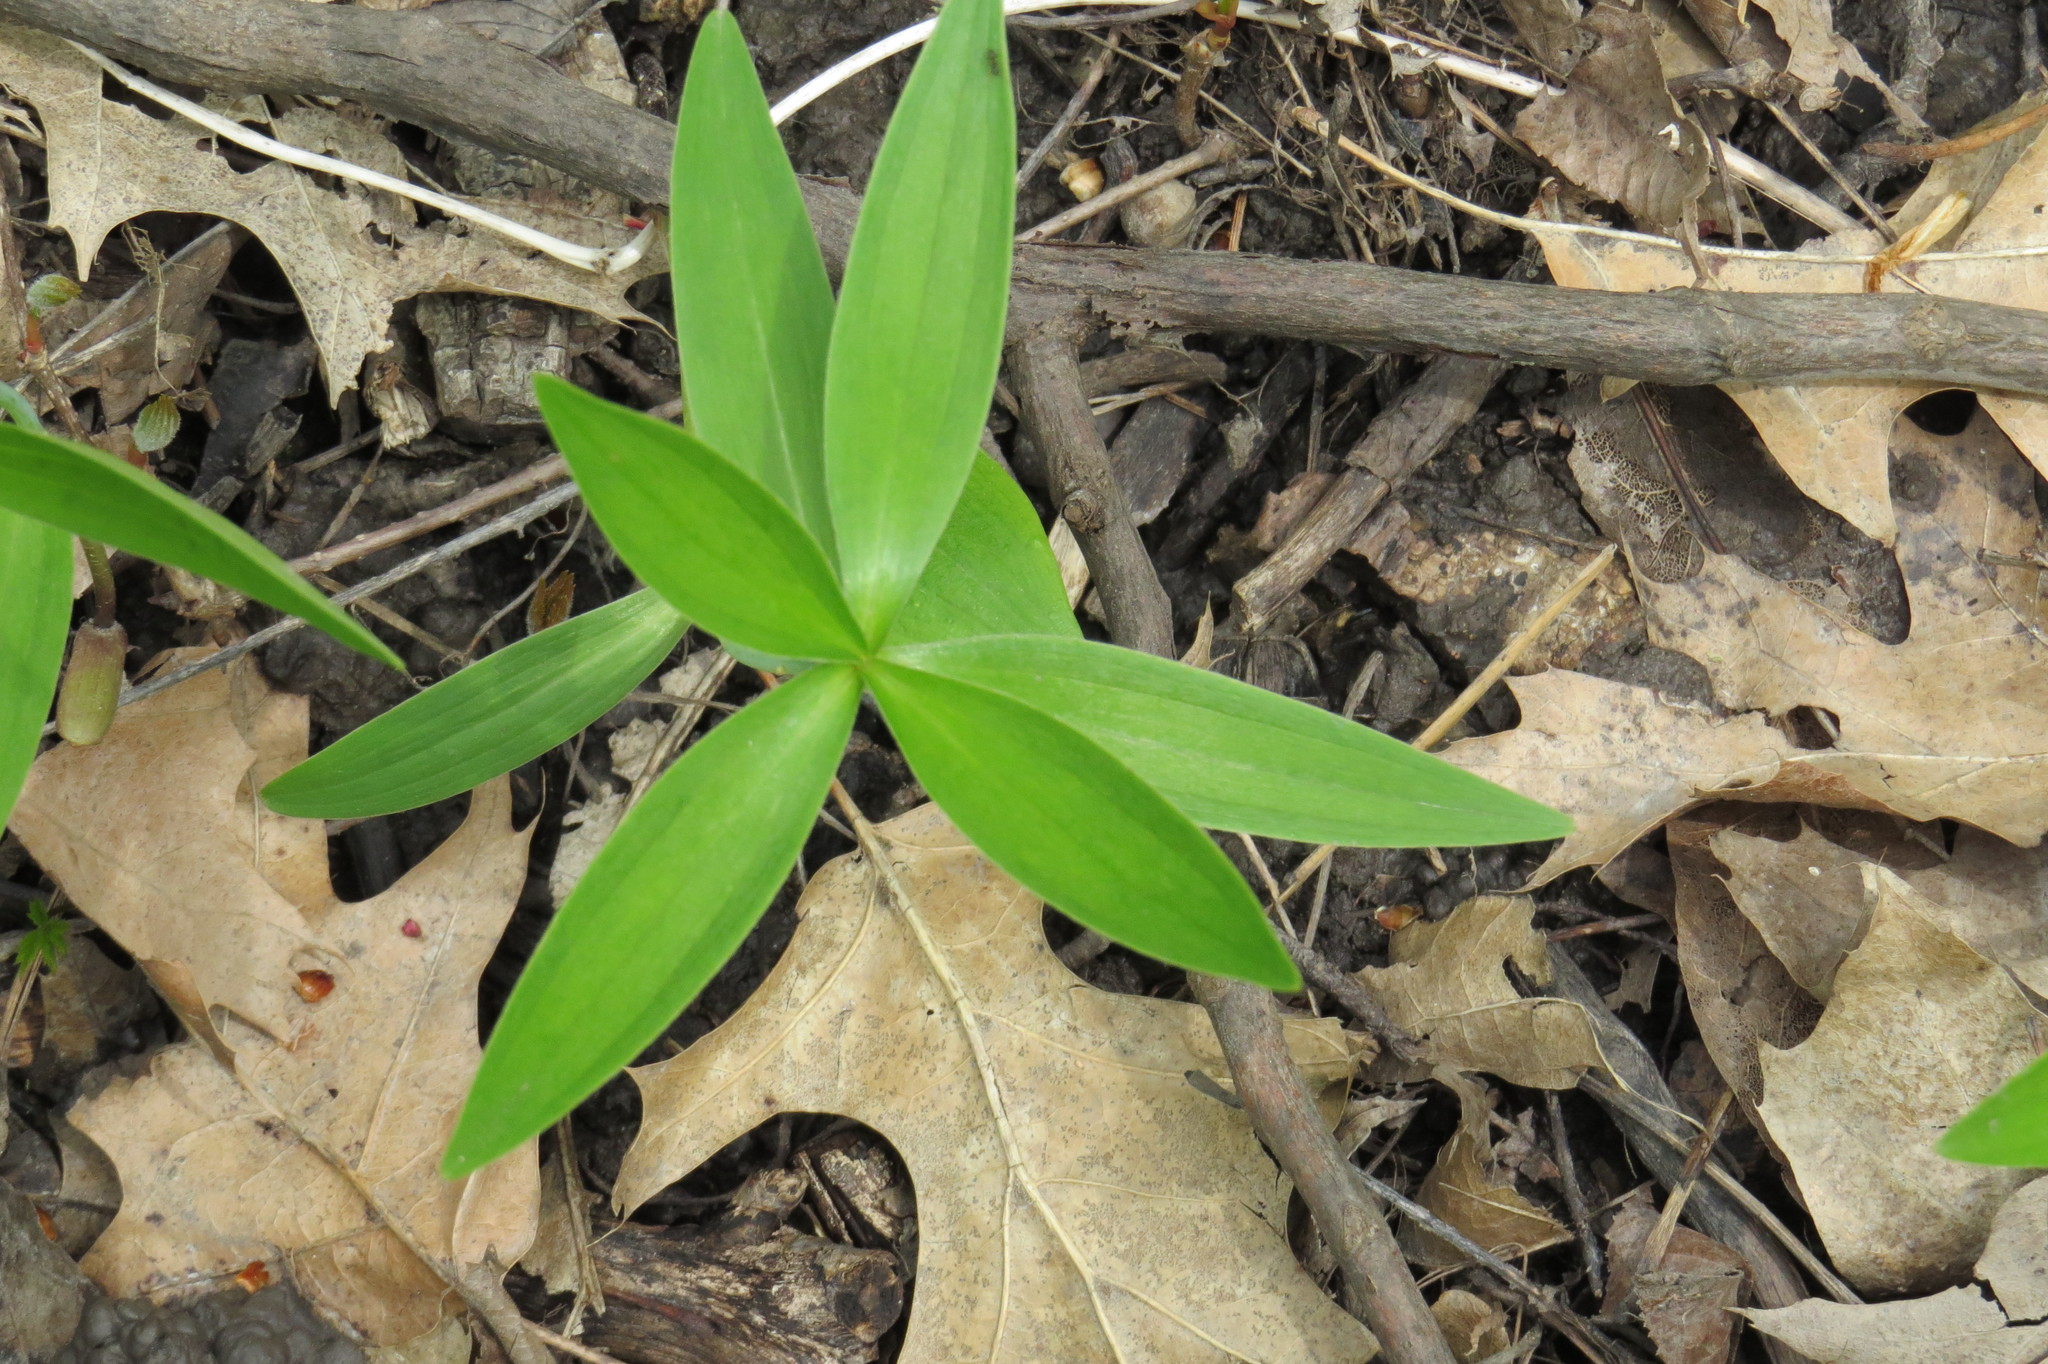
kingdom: Plantae
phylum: Tracheophyta
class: Liliopsida
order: Liliales
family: Liliaceae
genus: Lilium
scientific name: Lilium michiganense
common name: Michigan lily
